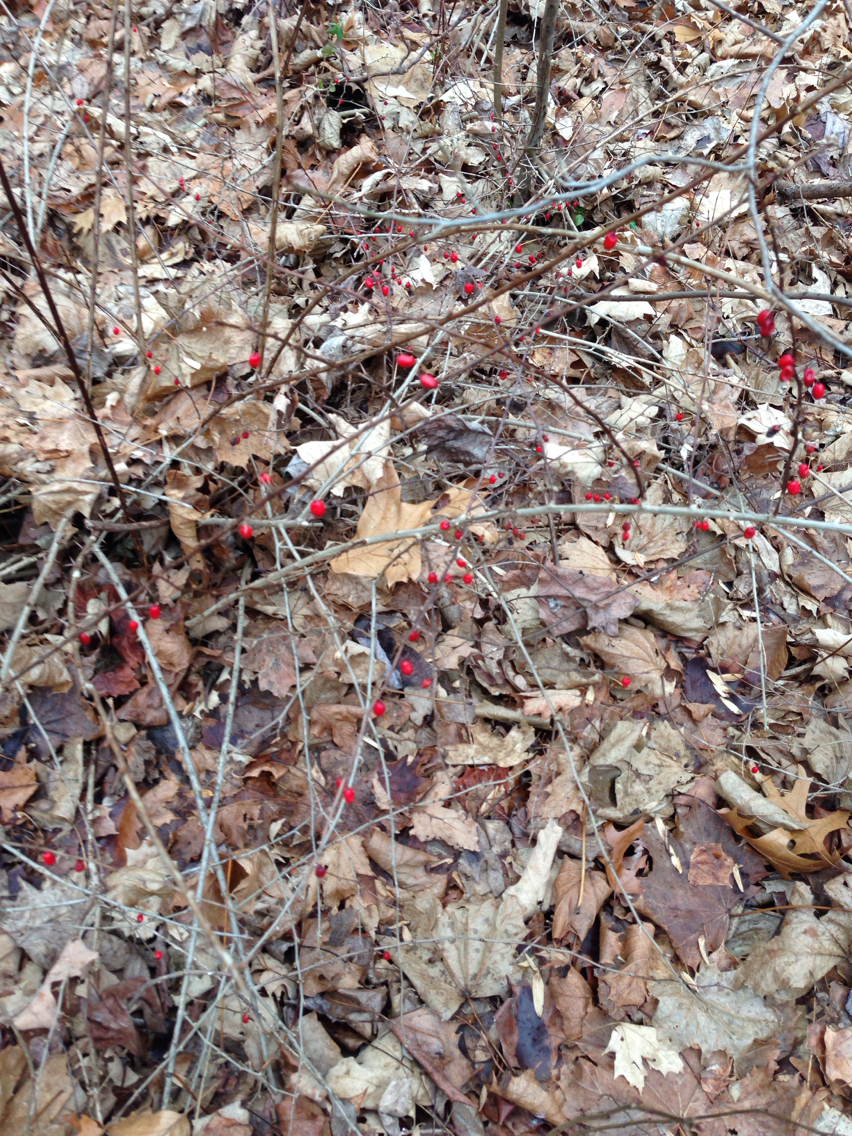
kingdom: Plantae
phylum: Tracheophyta
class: Magnoliopsida
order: Ranunculales
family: Berberidaceae
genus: Berberis
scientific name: Berberis thunbergii
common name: Japanese barberry
